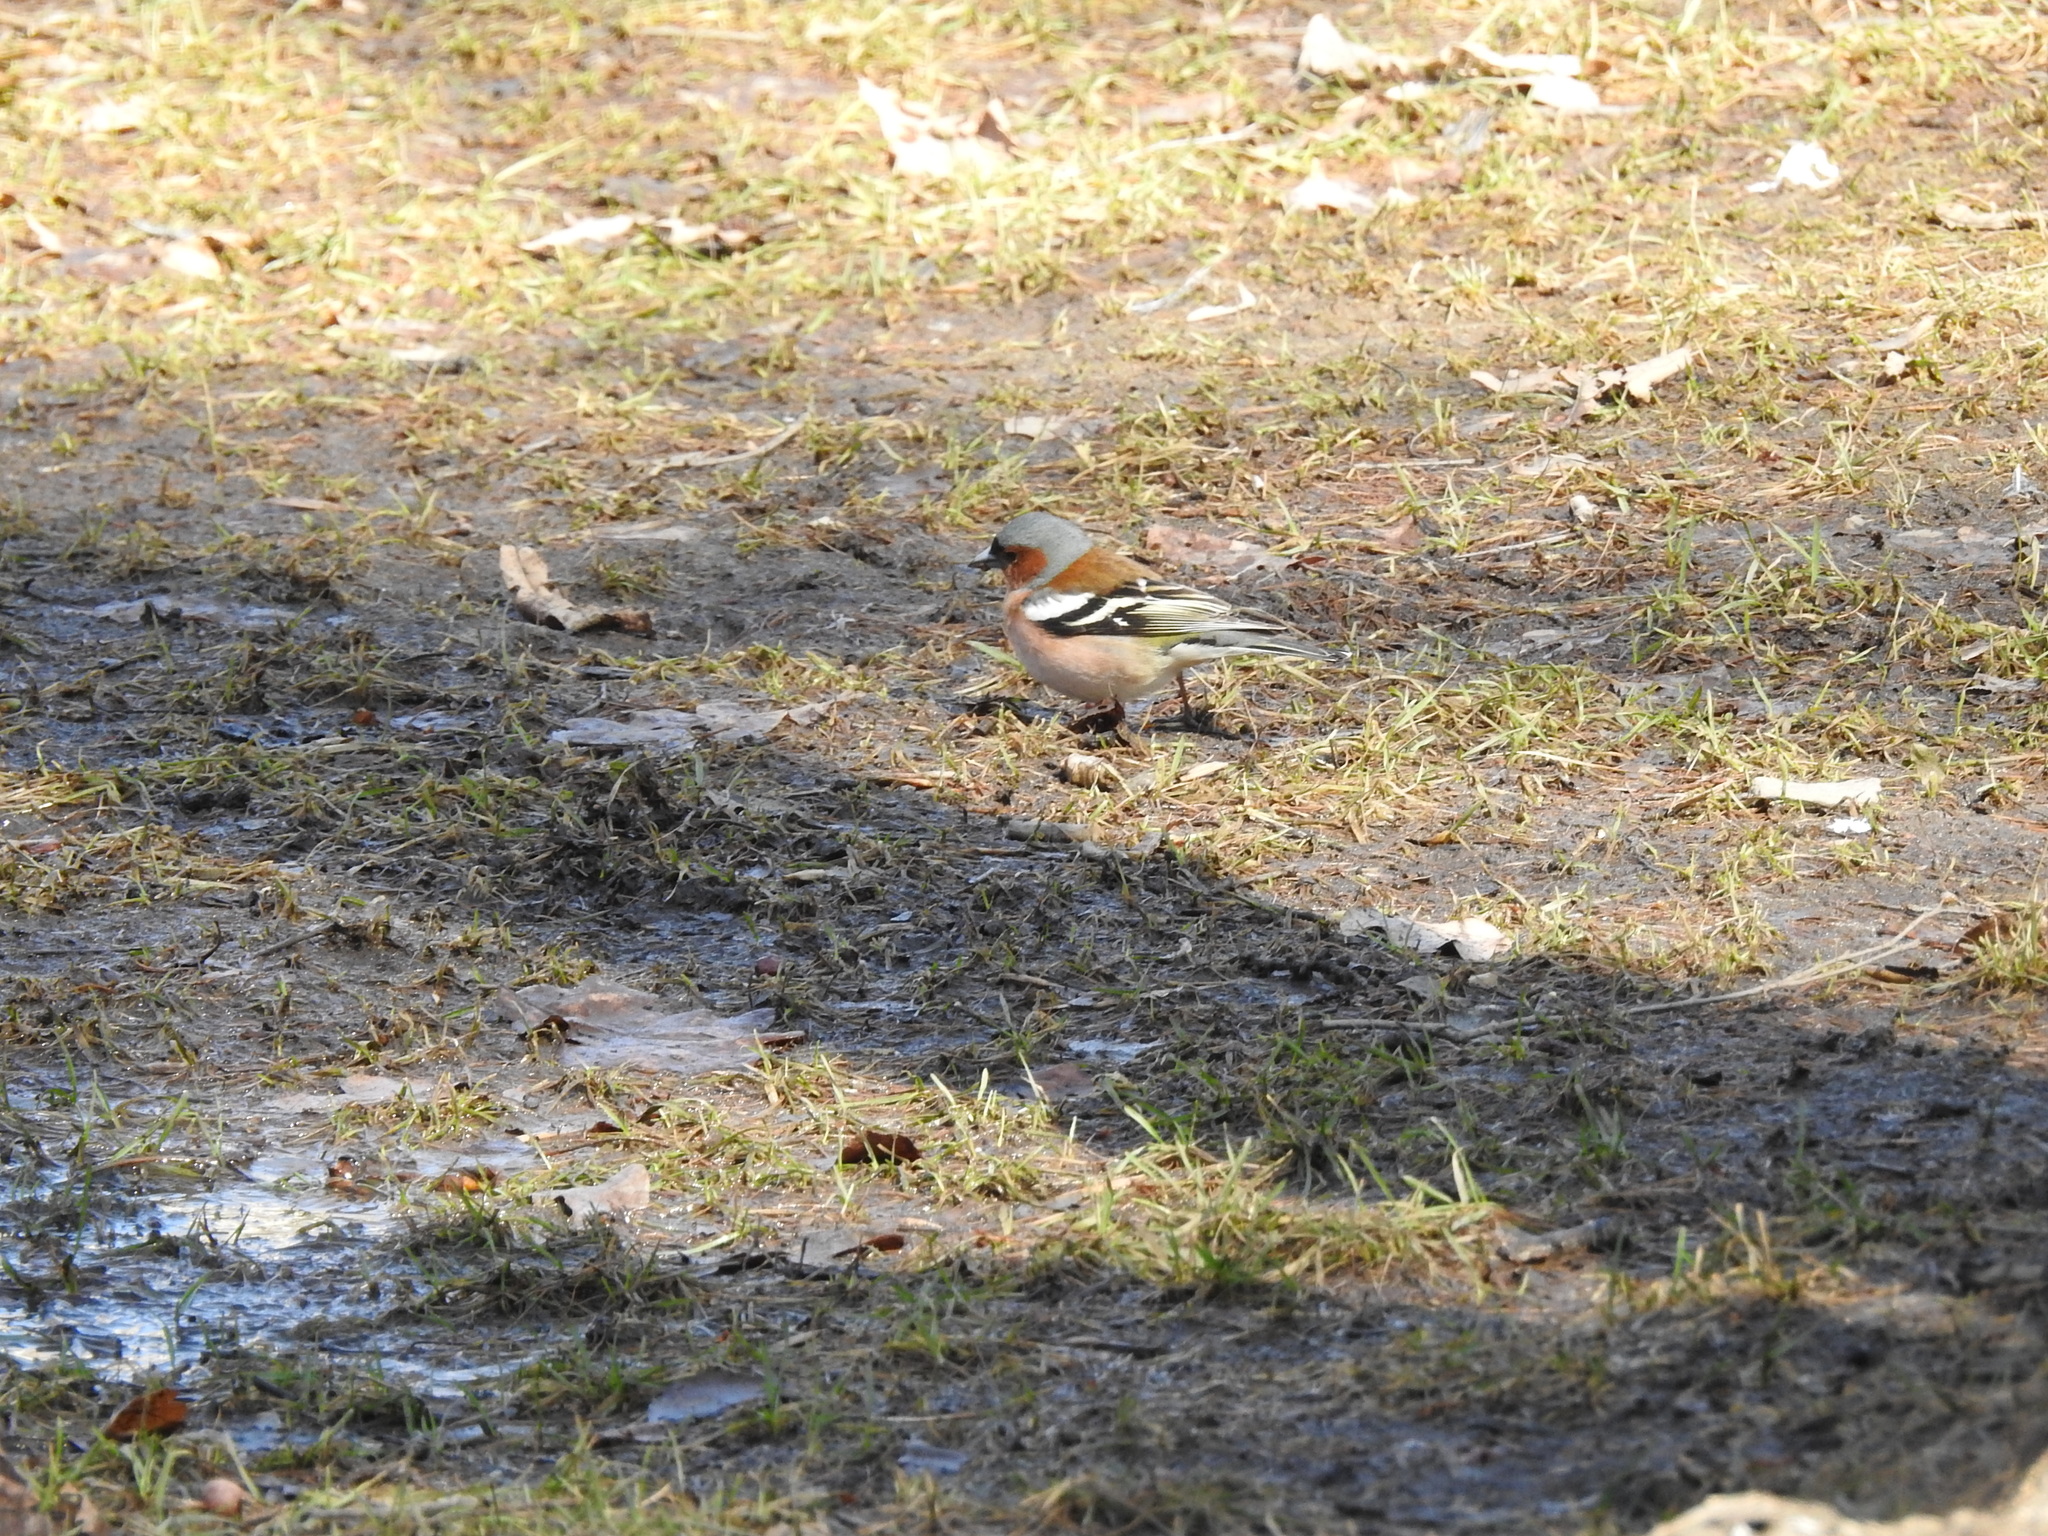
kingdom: Animalia
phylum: Chordata
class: Aves
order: Passeriformes
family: Fringillidae
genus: Fringilla
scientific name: Fringilla coelebs
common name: Common chaffinch
